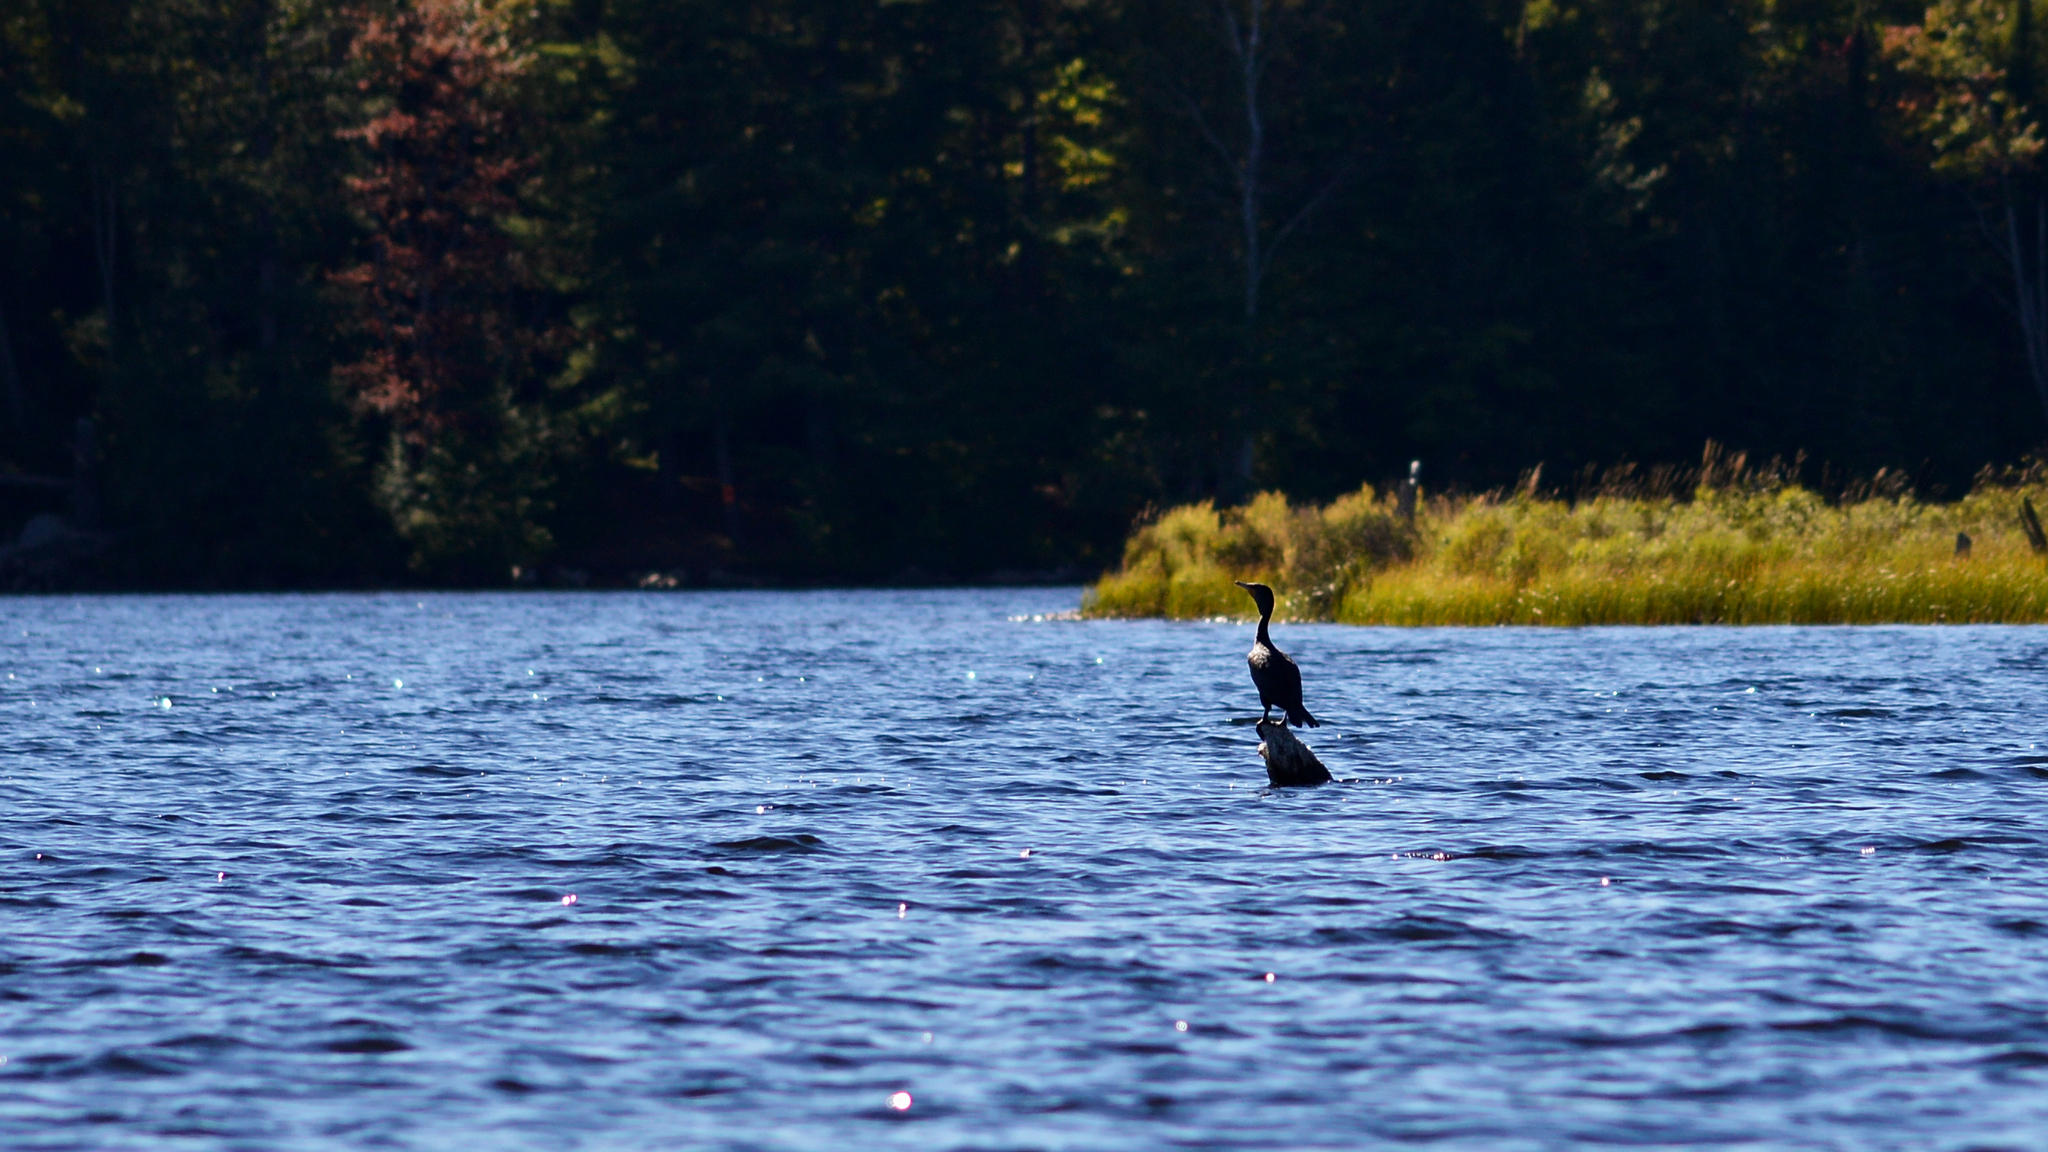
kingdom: Animalia
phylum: Chordata
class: Aves
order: Suliformes
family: Phalacrocoracidae
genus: Phalacrocorax
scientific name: Phalacrocorax auritus
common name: Double-crested cormorant
